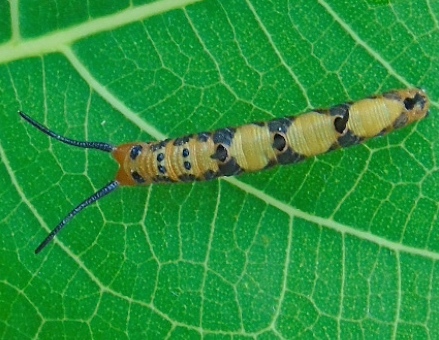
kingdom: Animalia
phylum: Arthropoda
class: Insecta
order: Lepidoptera
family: Nymphalidae
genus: Marpesia
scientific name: Marpesia petreus
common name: Red dagger wing
